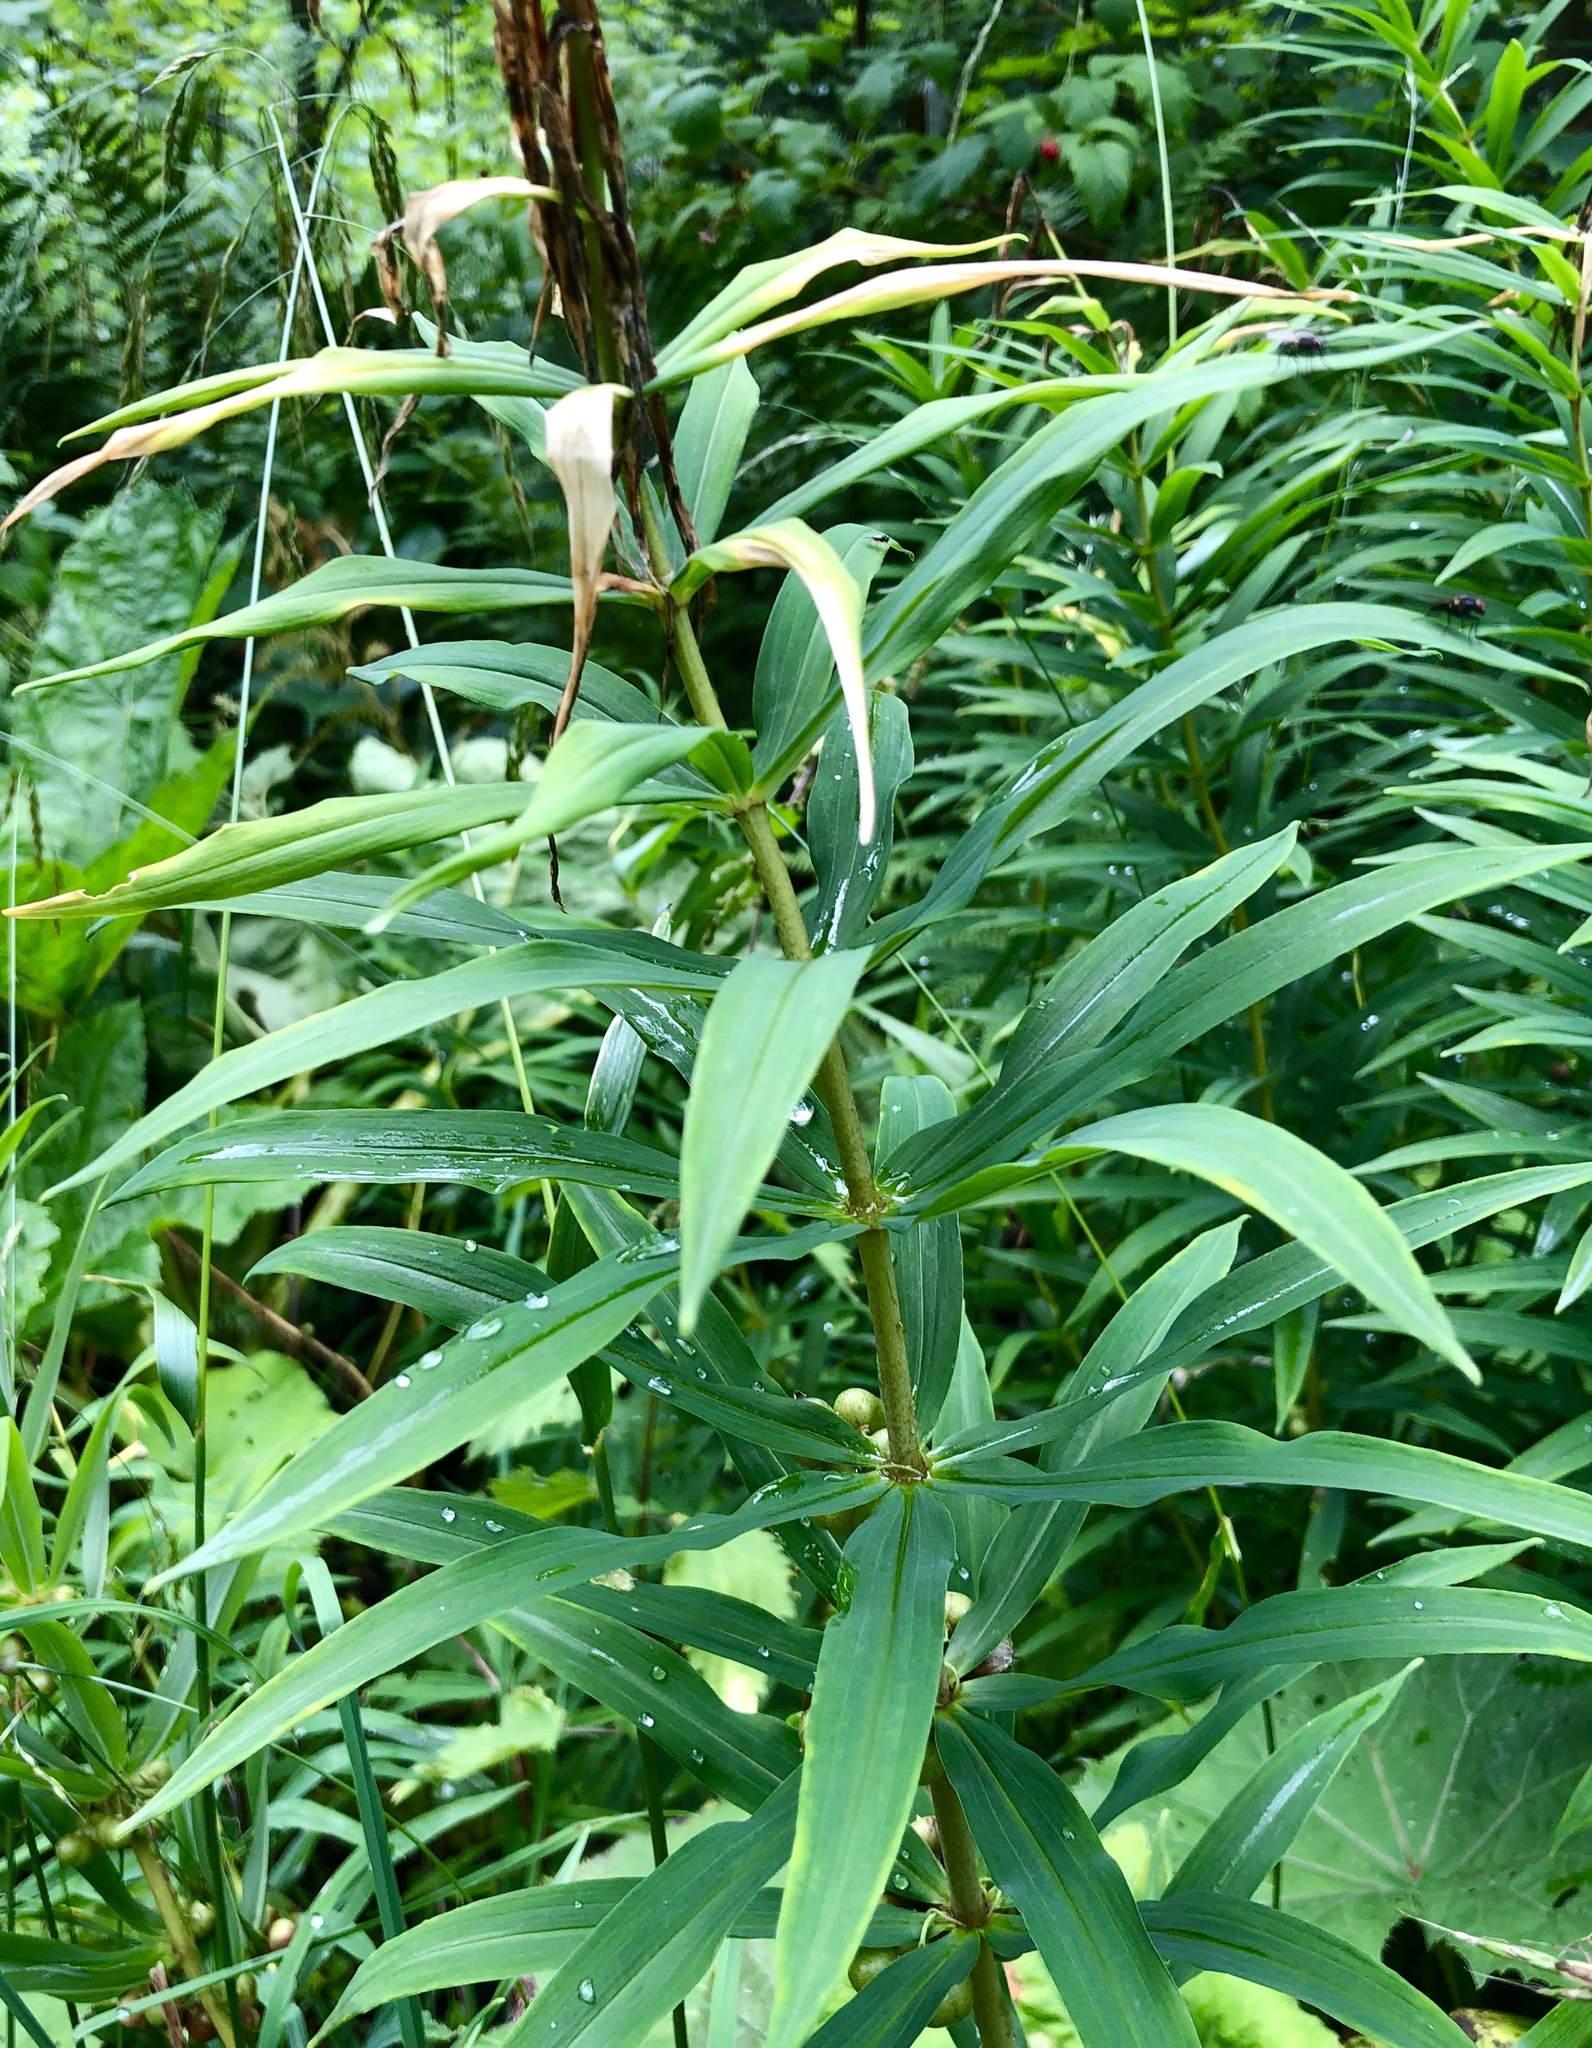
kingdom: Plantae
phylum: Tracheophyta
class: Liliopsida
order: Asparagales
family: Asparagaceae
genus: Polygonatum
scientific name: Polygonatum verticillatum
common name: Whorled solomon's-seal
